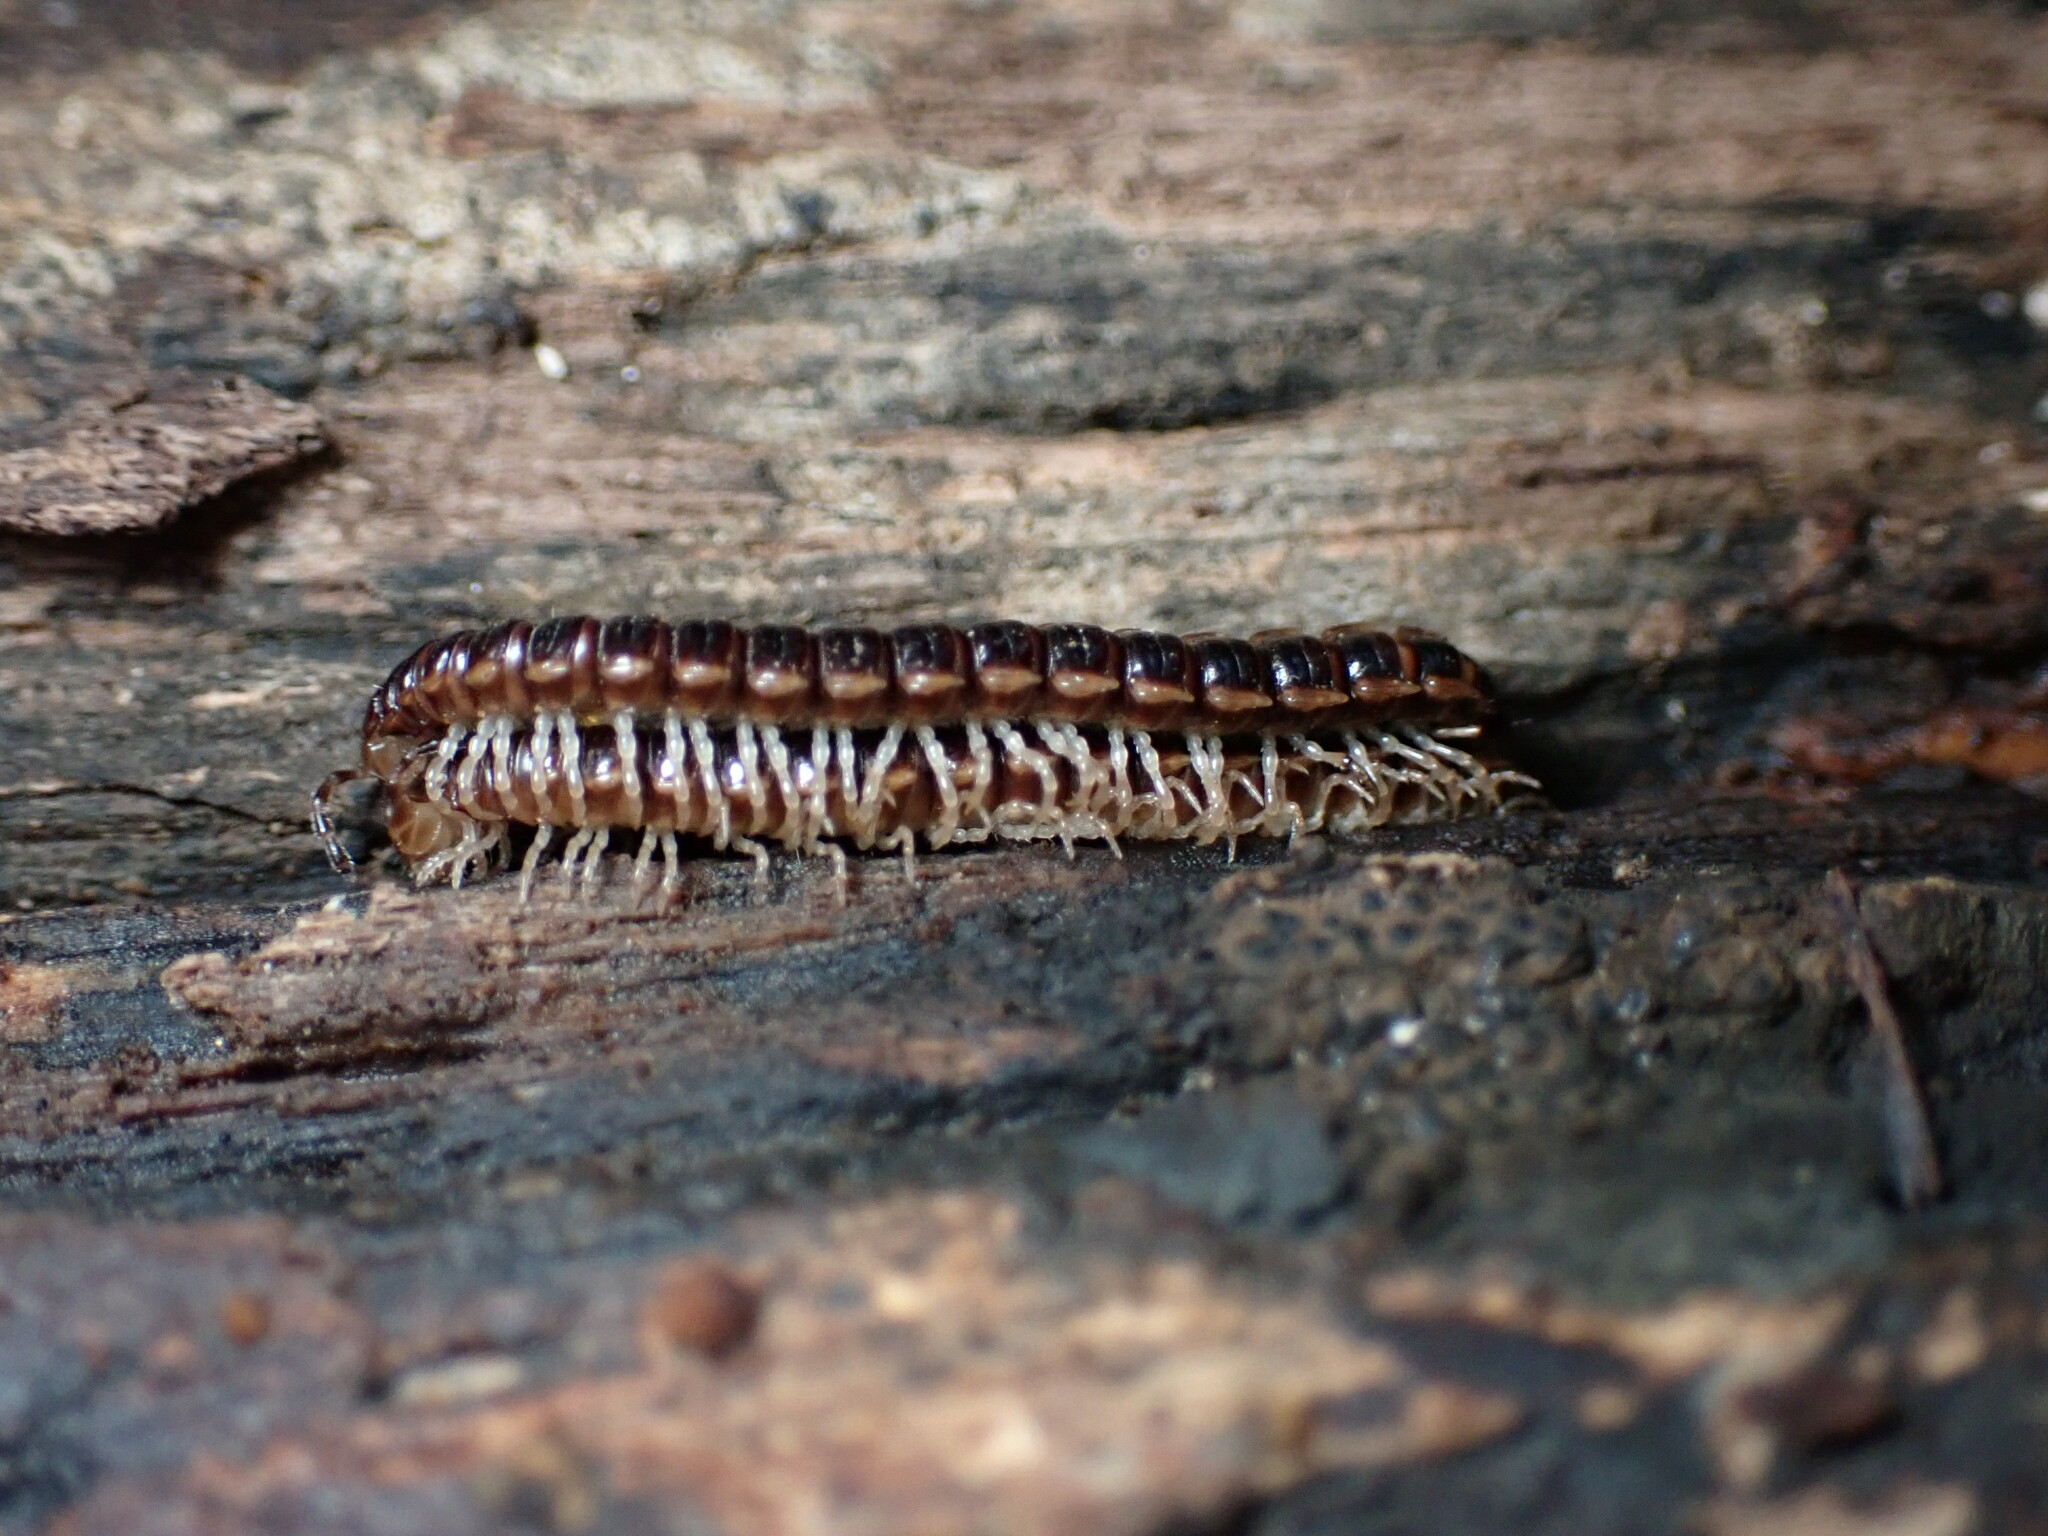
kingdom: Animalia
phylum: Arthropoda
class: Diplopoda
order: Polydesmida
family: Paradoxosomatidae
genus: Oxidus
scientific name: Oxidus gracilis
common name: Greenhouse millipede
